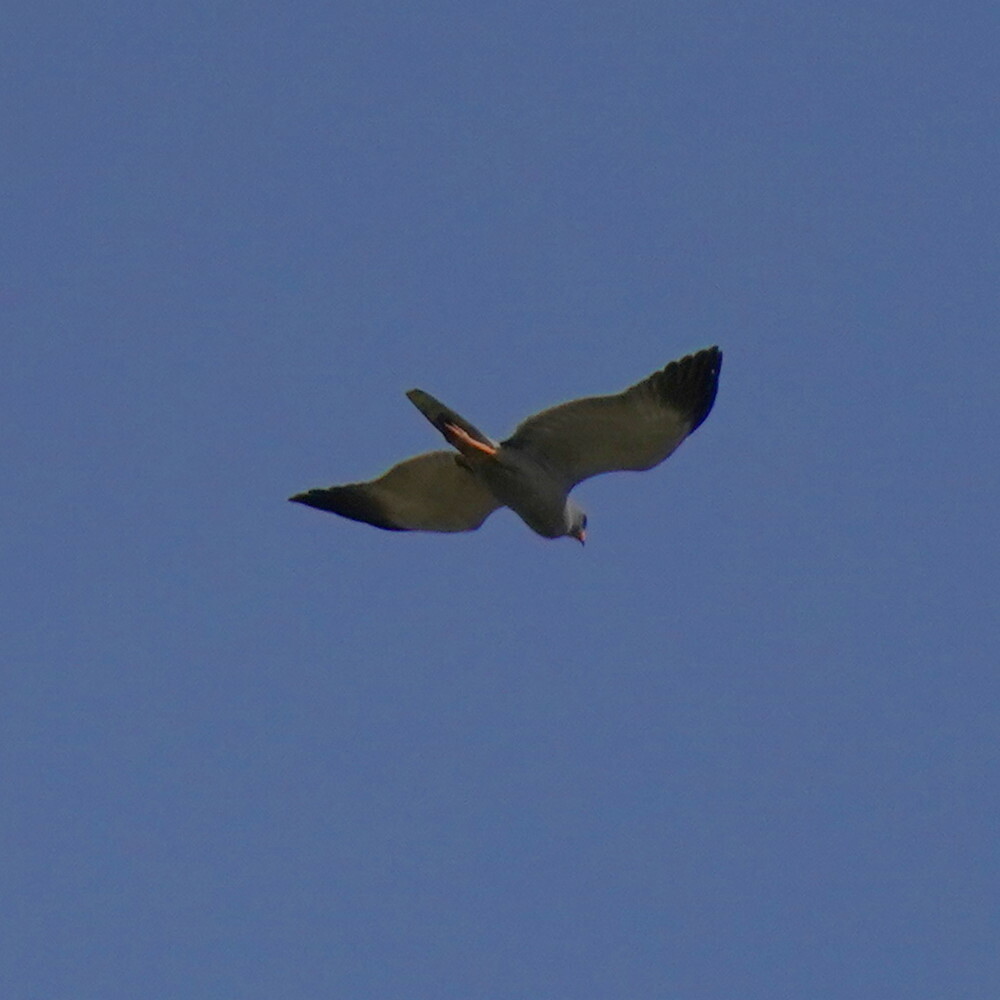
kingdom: Animalia
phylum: Chordata
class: Aves
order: Accipitriformes
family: Accipitridae
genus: Melierax
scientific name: Melierax metabates
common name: Dark chanting-goshawk
